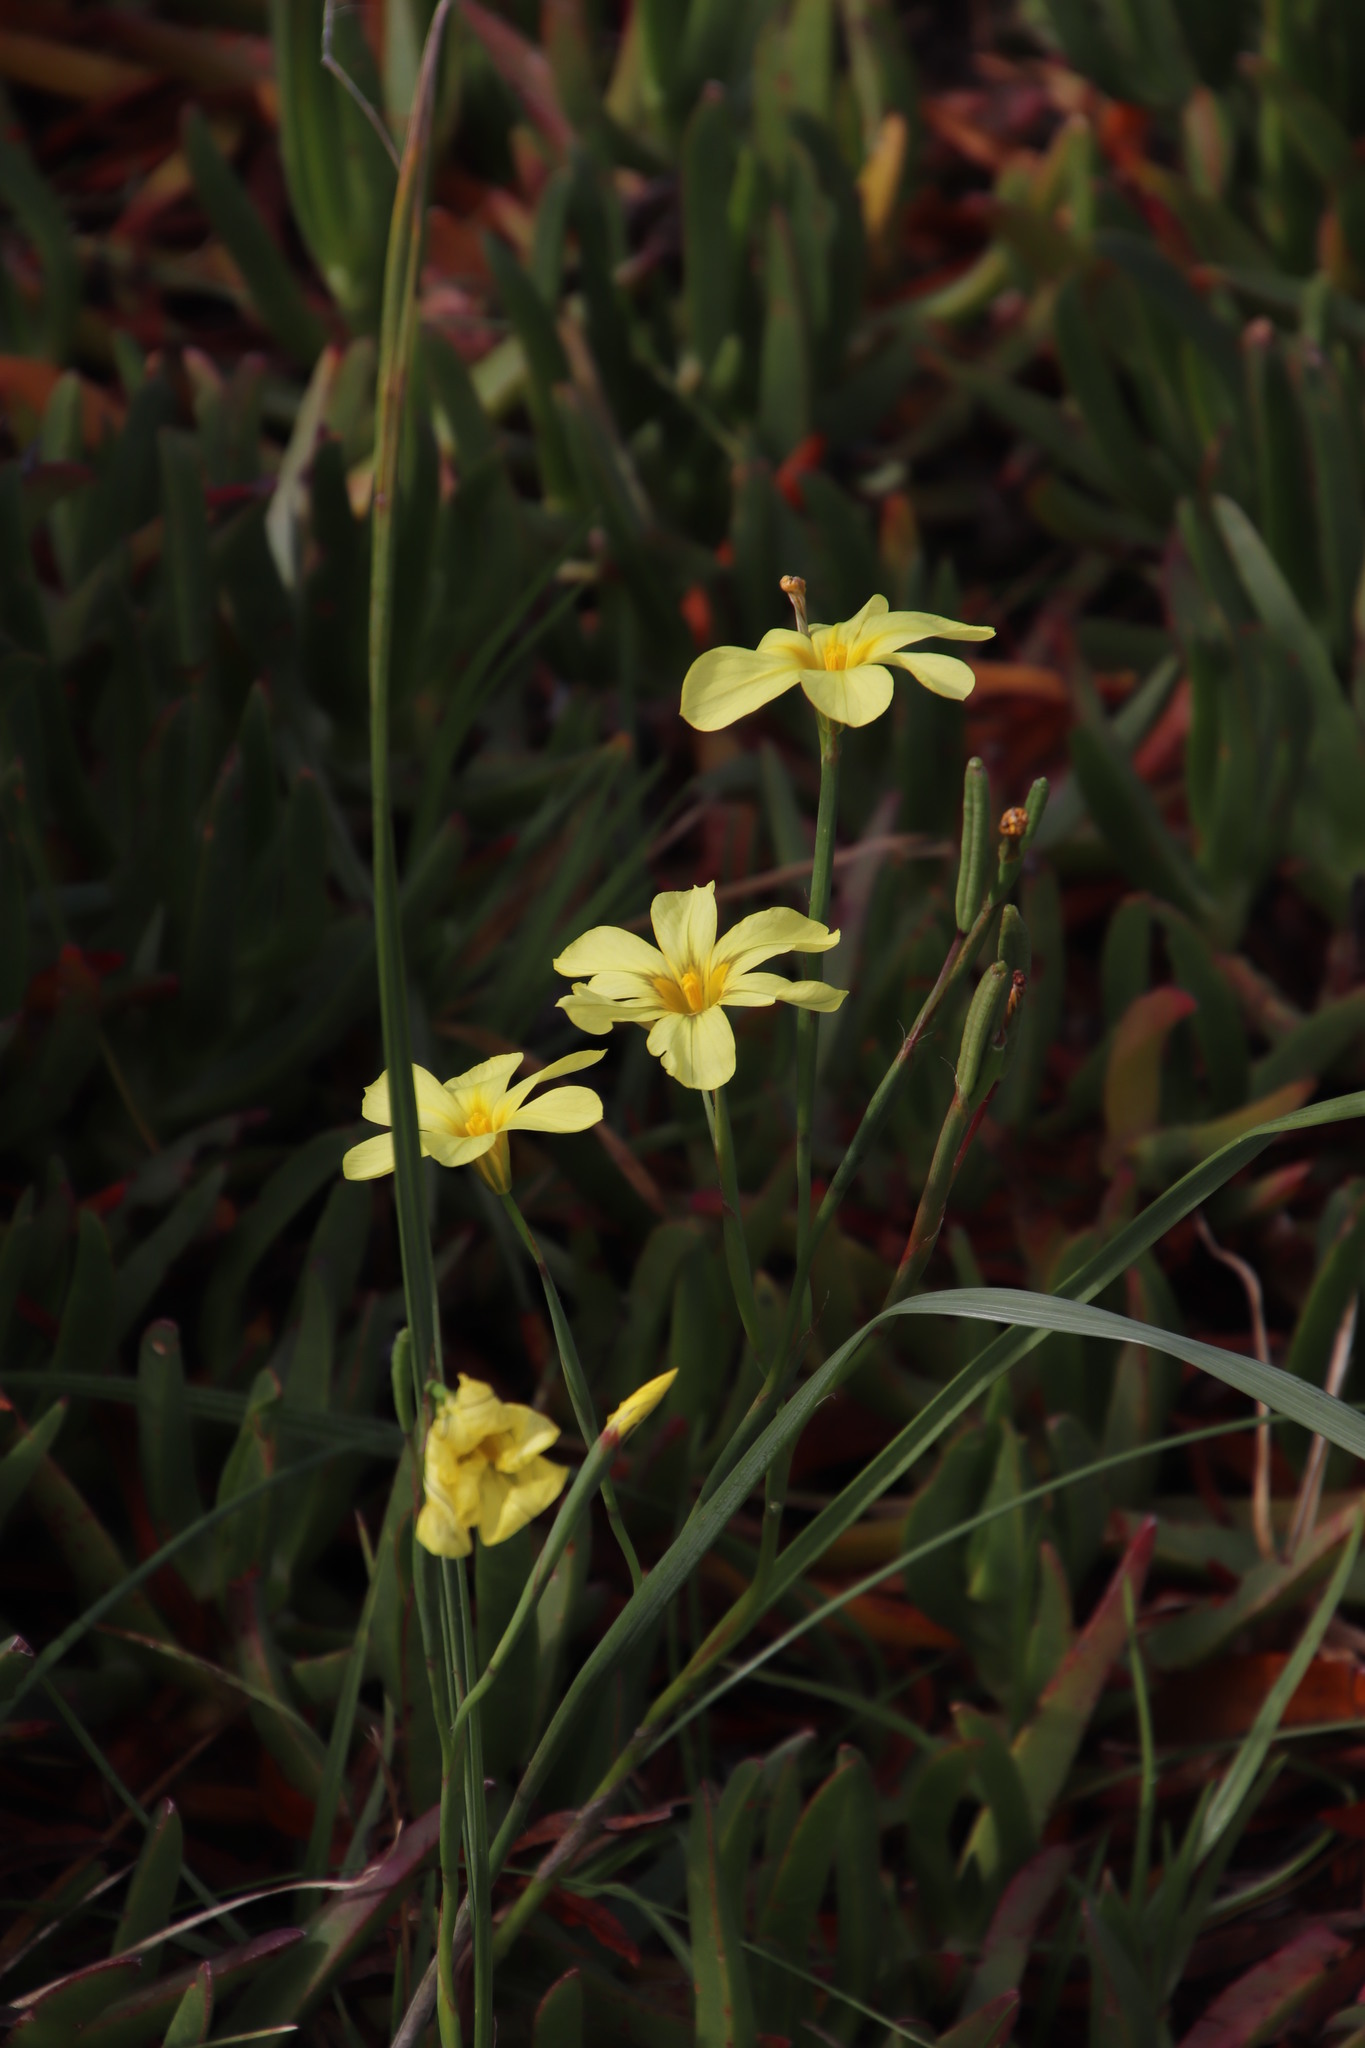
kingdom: Plantae
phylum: Tracheophyta
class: Liliopsida
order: Asparagales
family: Iridaceae
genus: Moraea
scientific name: Moraea collina
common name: Cape-tulip
